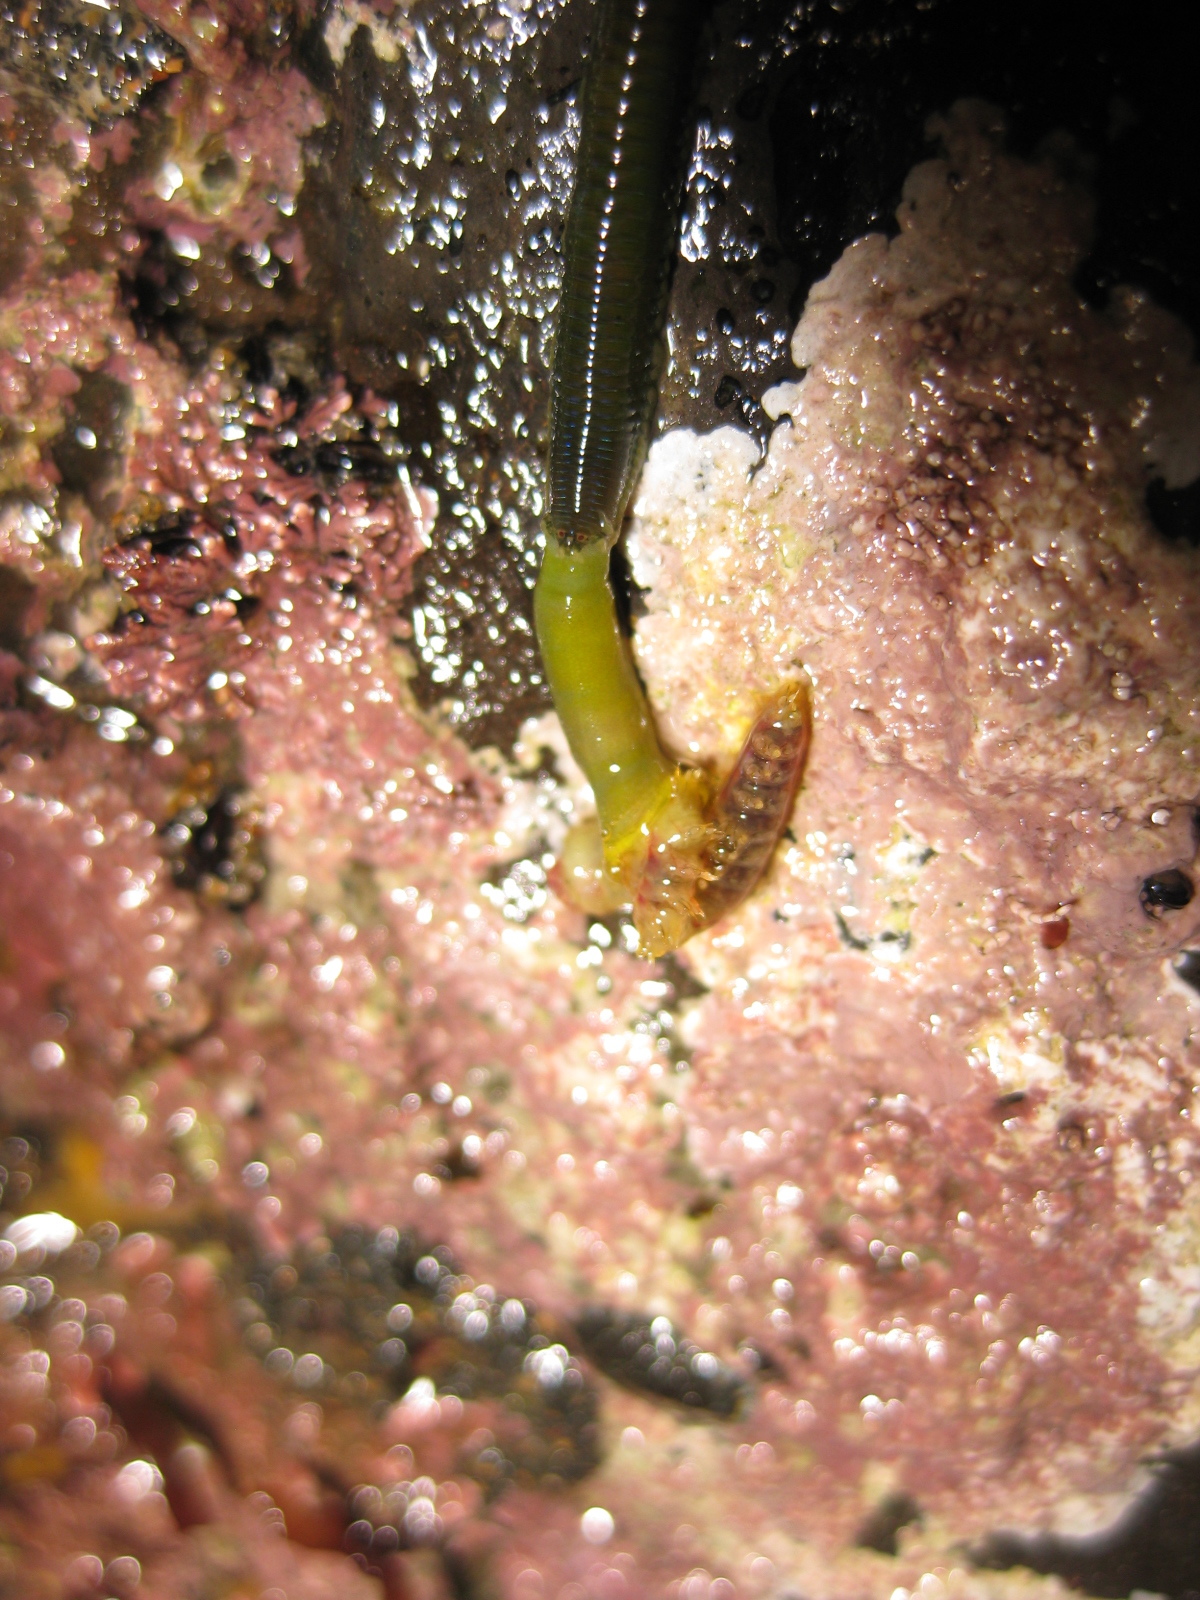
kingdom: Animalia
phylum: Annelida
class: Polychaeta
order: Phyllodocida
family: Phyllodocidae
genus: Eulalia
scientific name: Eulalia microphylla
